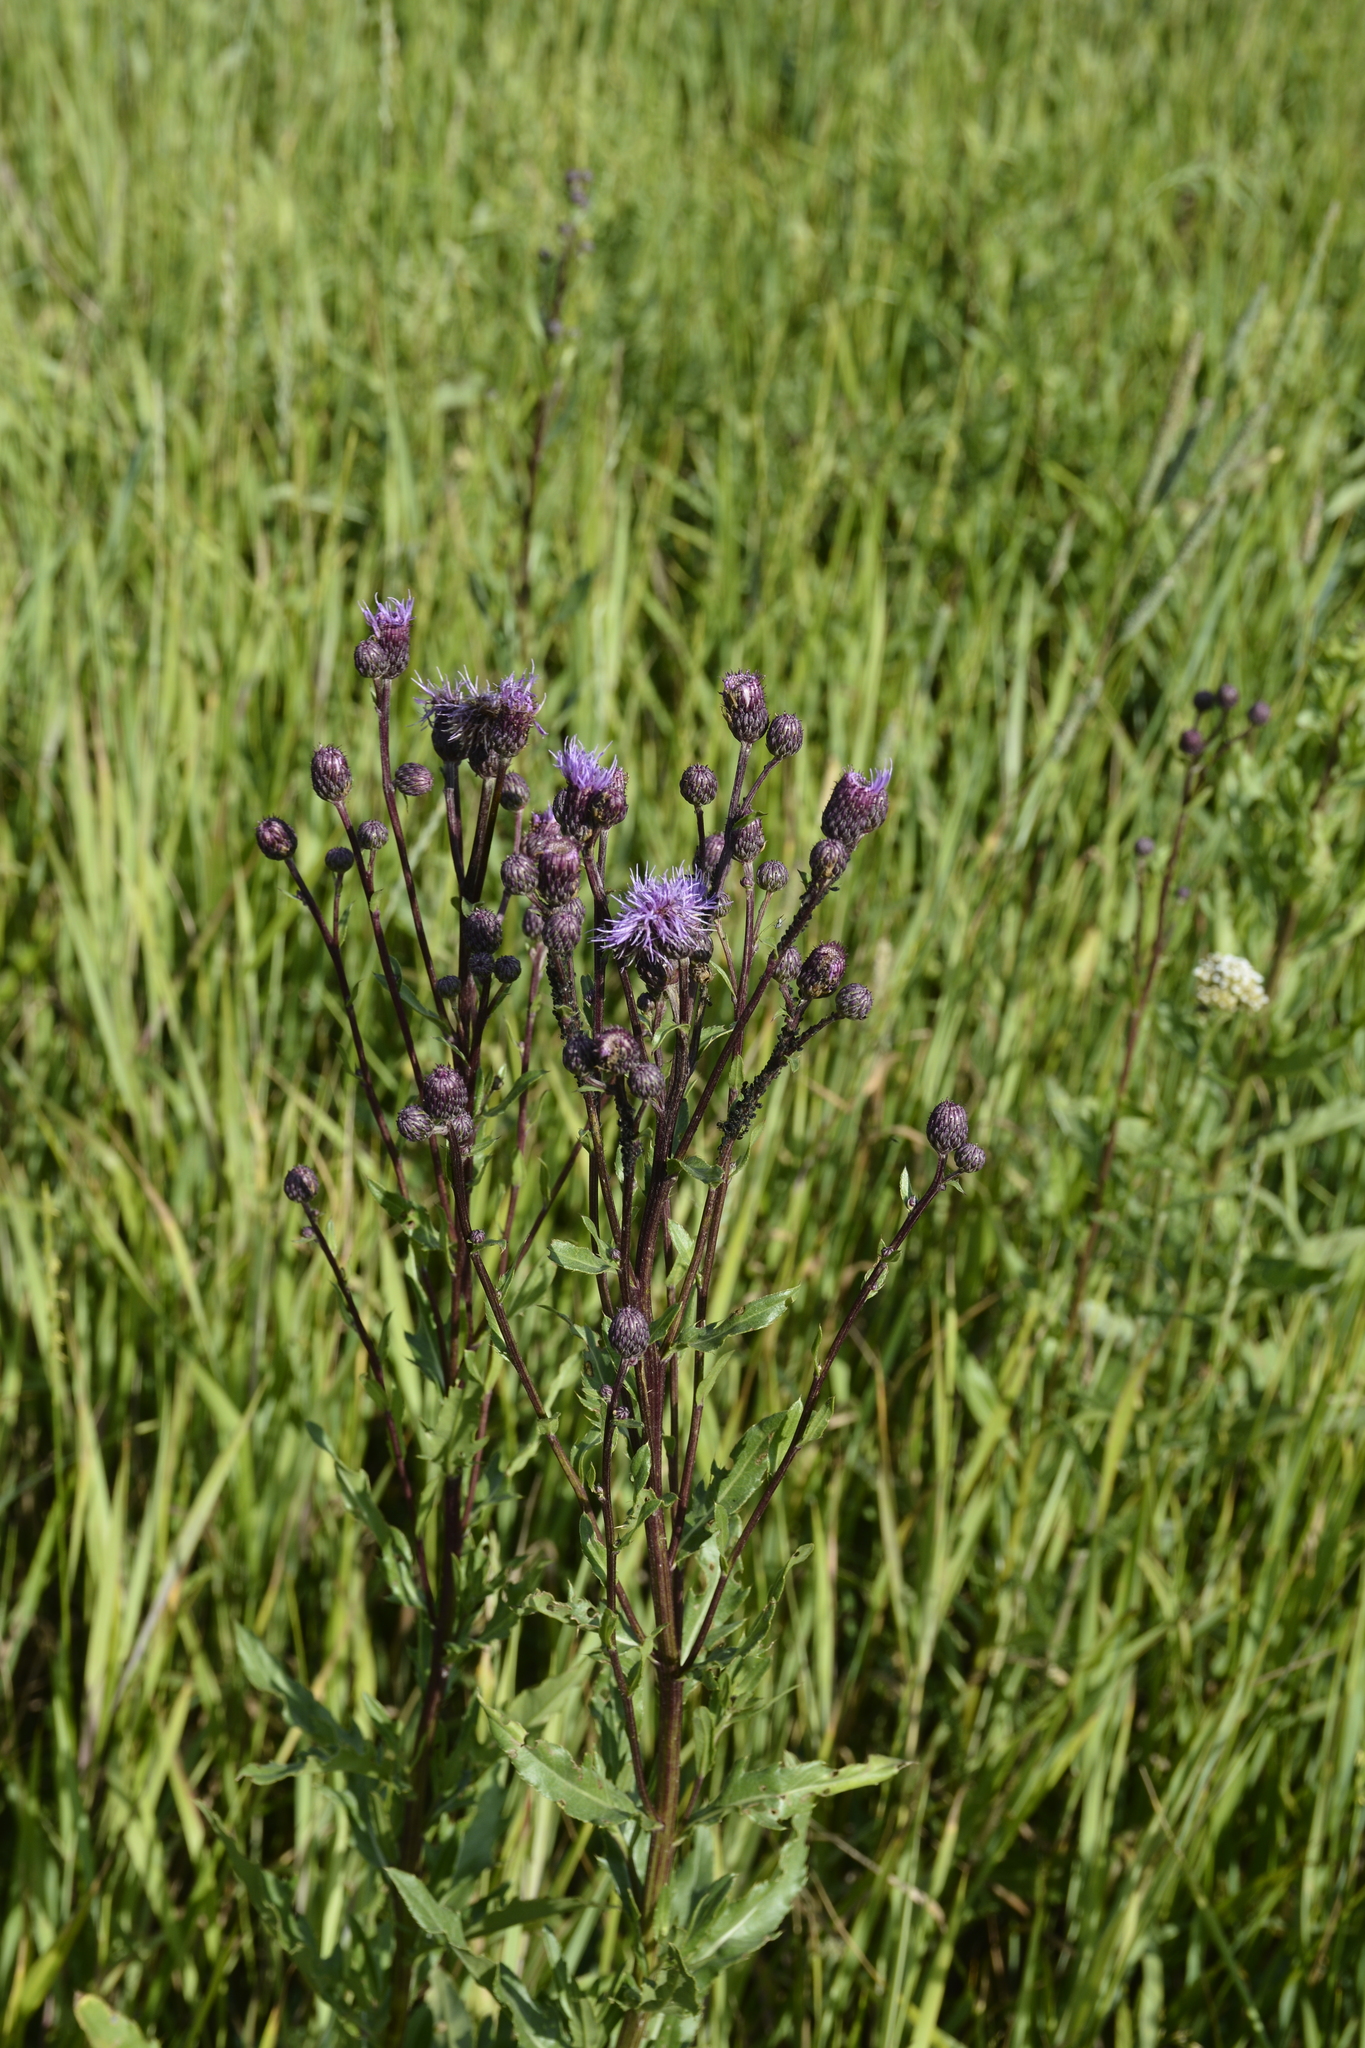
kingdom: Plantae
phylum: Tracheophyta
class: Magnoliopsida
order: Asterales
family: Asteraceae
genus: Cirsium
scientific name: Cirsium arvense
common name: Creeping thistle
